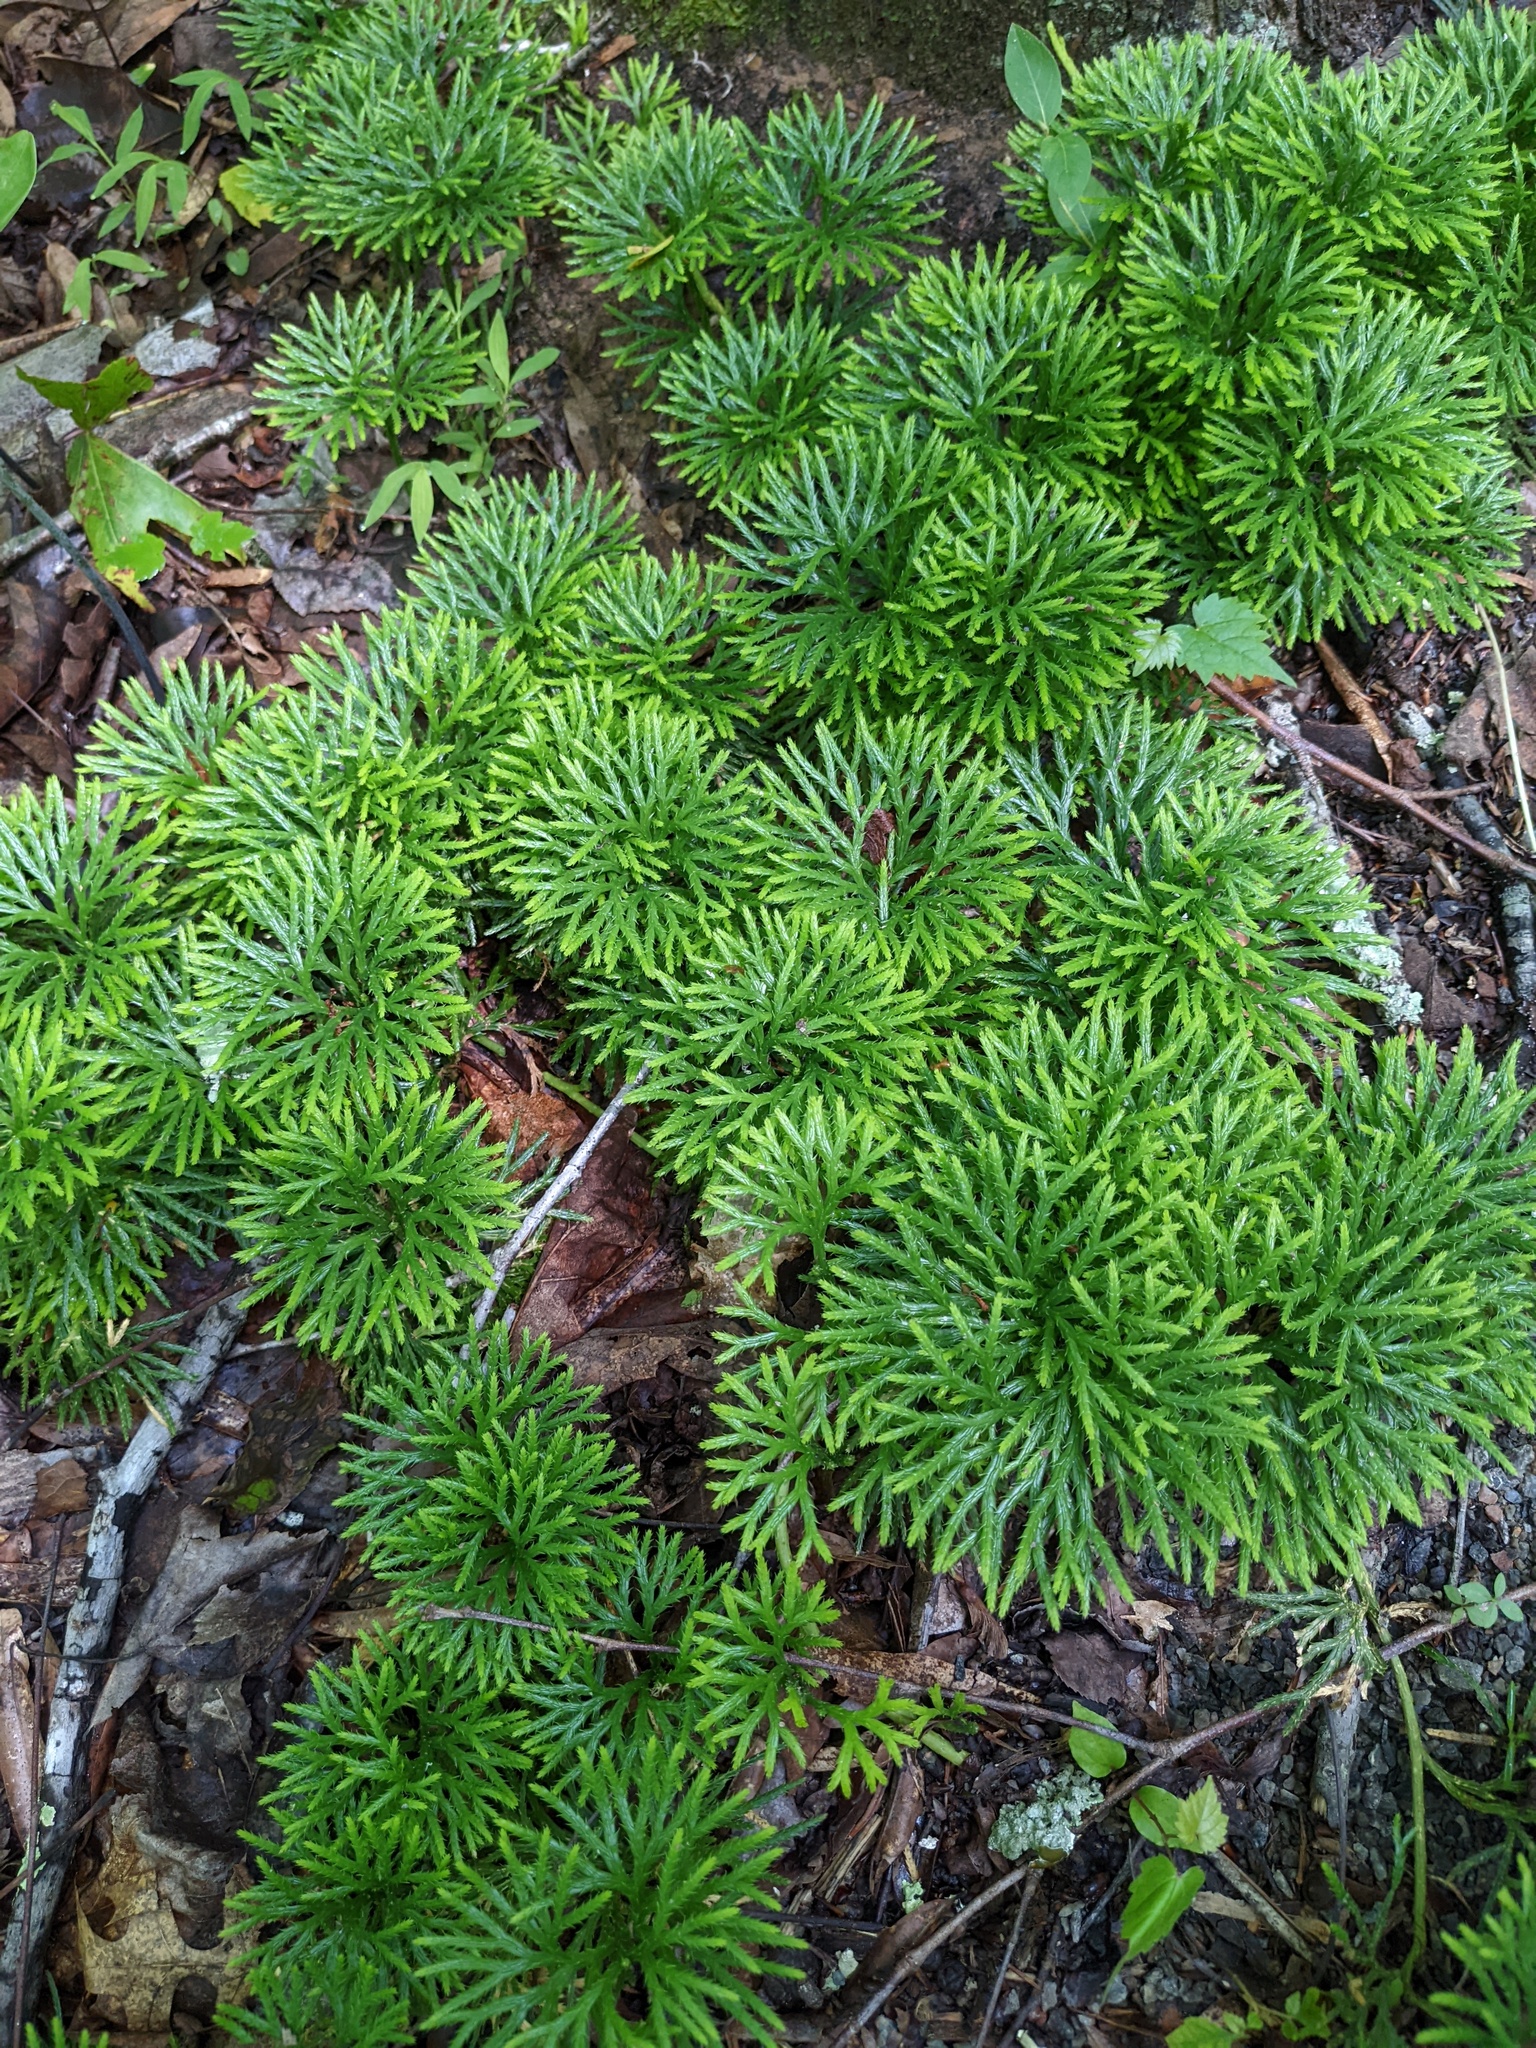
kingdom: Plantae
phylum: Tracheophyta
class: Lycopodiopsida
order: Lycopodiales
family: Lycopodiaceae
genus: Diphasiastrum
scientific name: Diphasiastrum digitatum
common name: Southern running-pine
